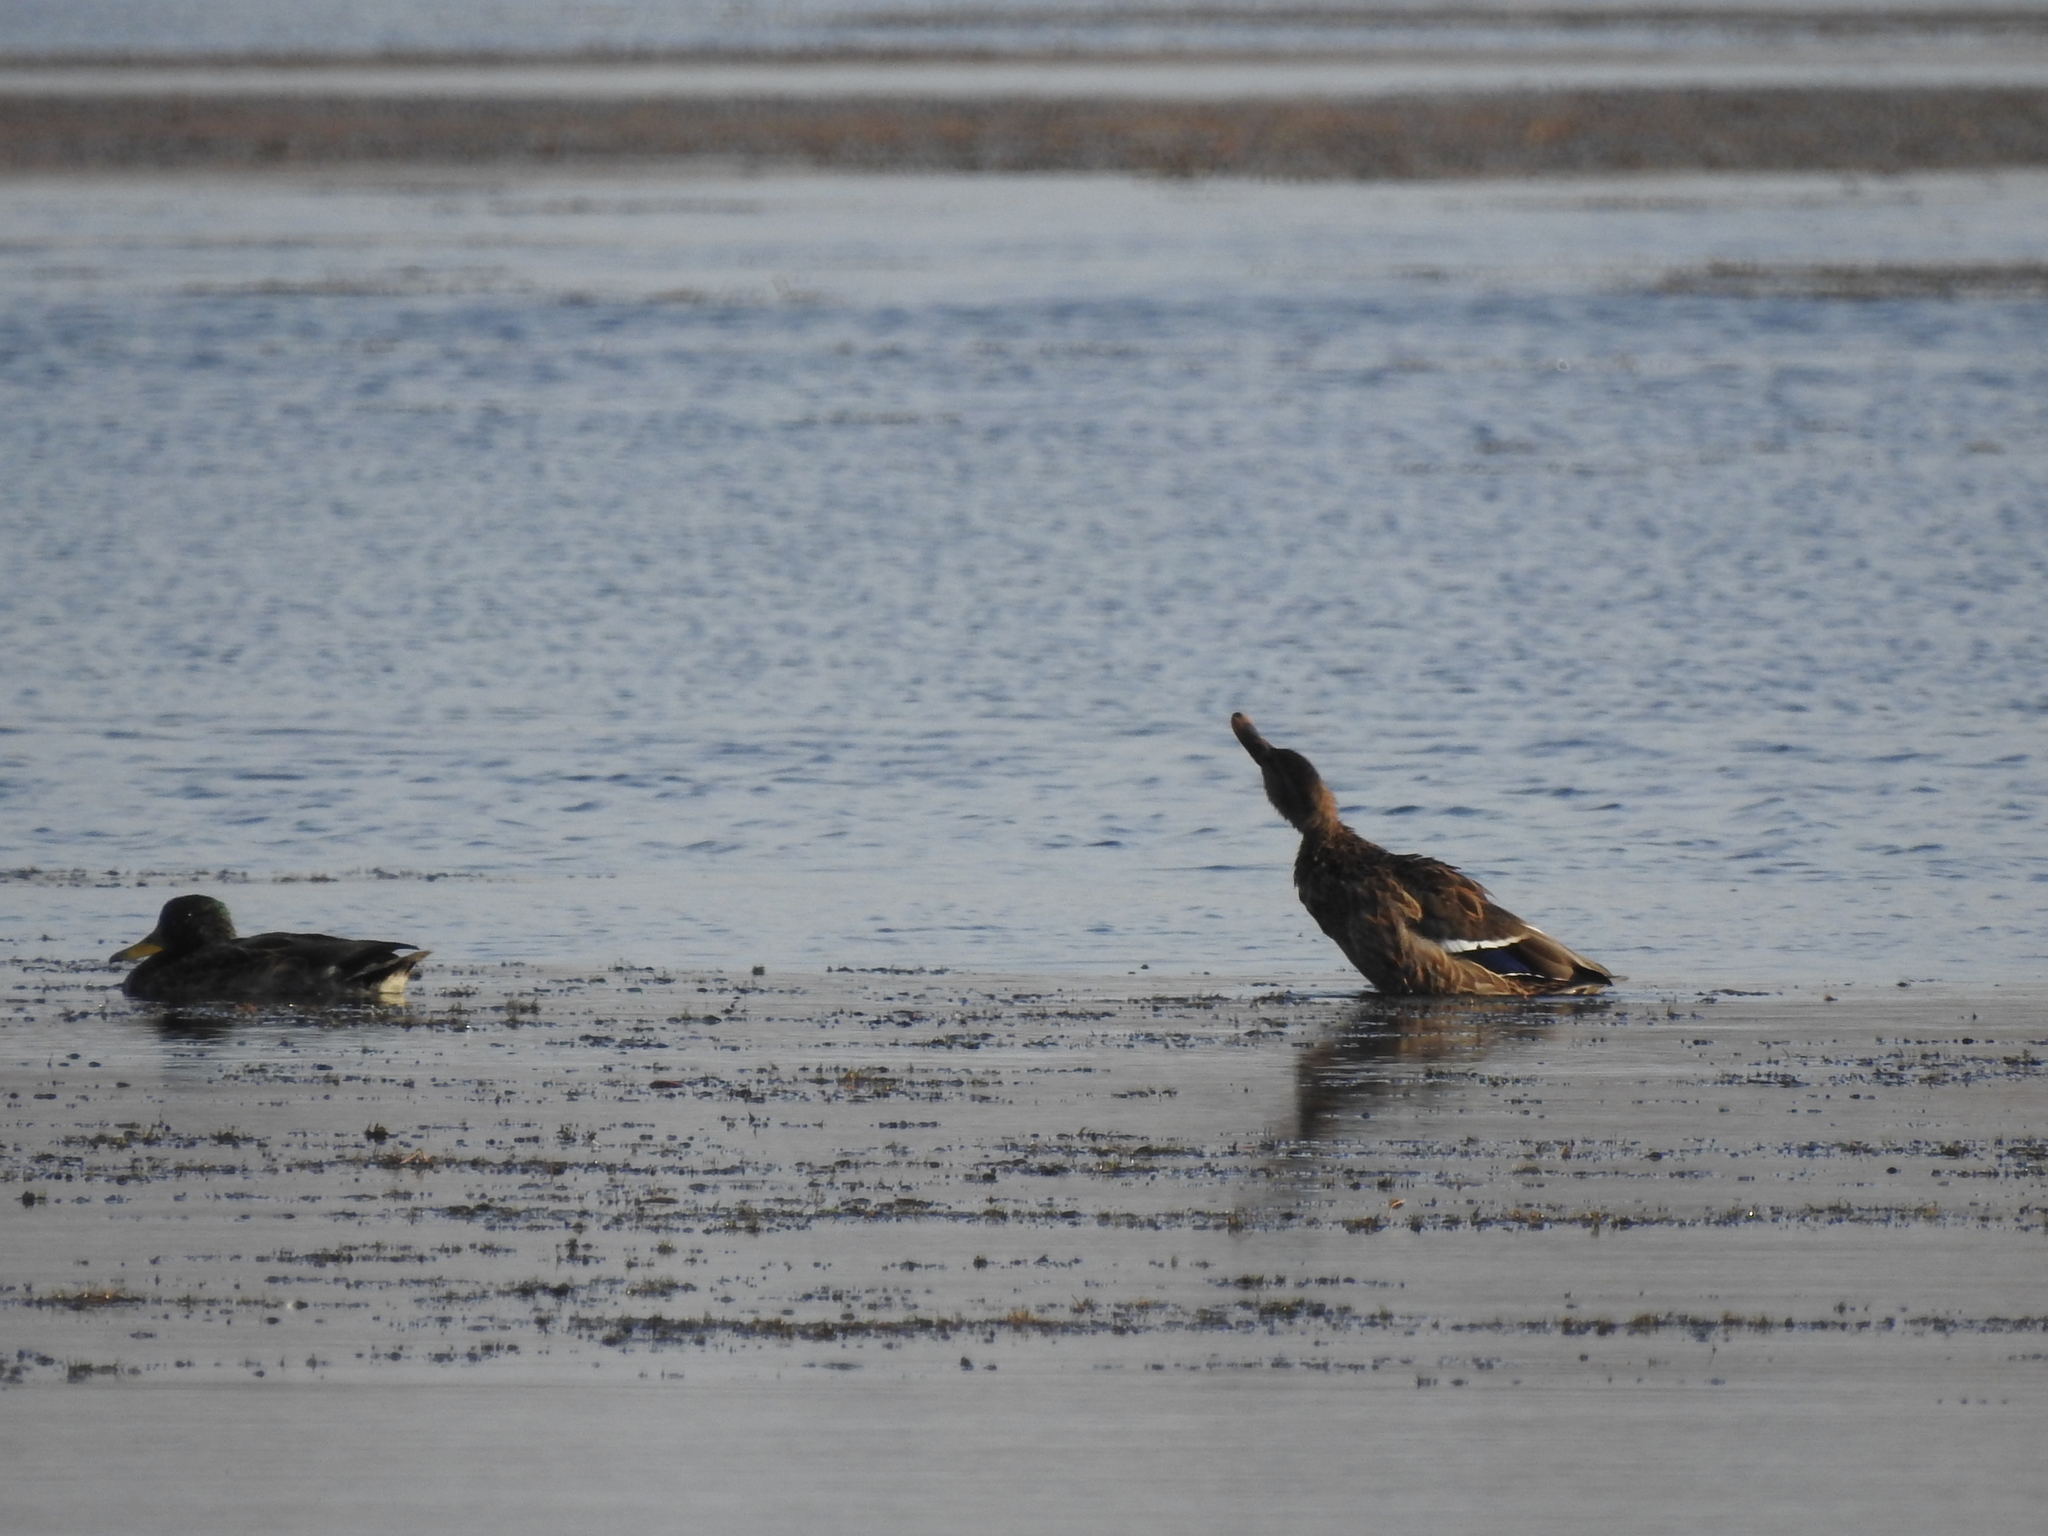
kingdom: Animalia
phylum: Chordata
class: Aves
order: Anseriformes
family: Anatidae
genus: Anas
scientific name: Anas platyrhynchos
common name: Mallard
